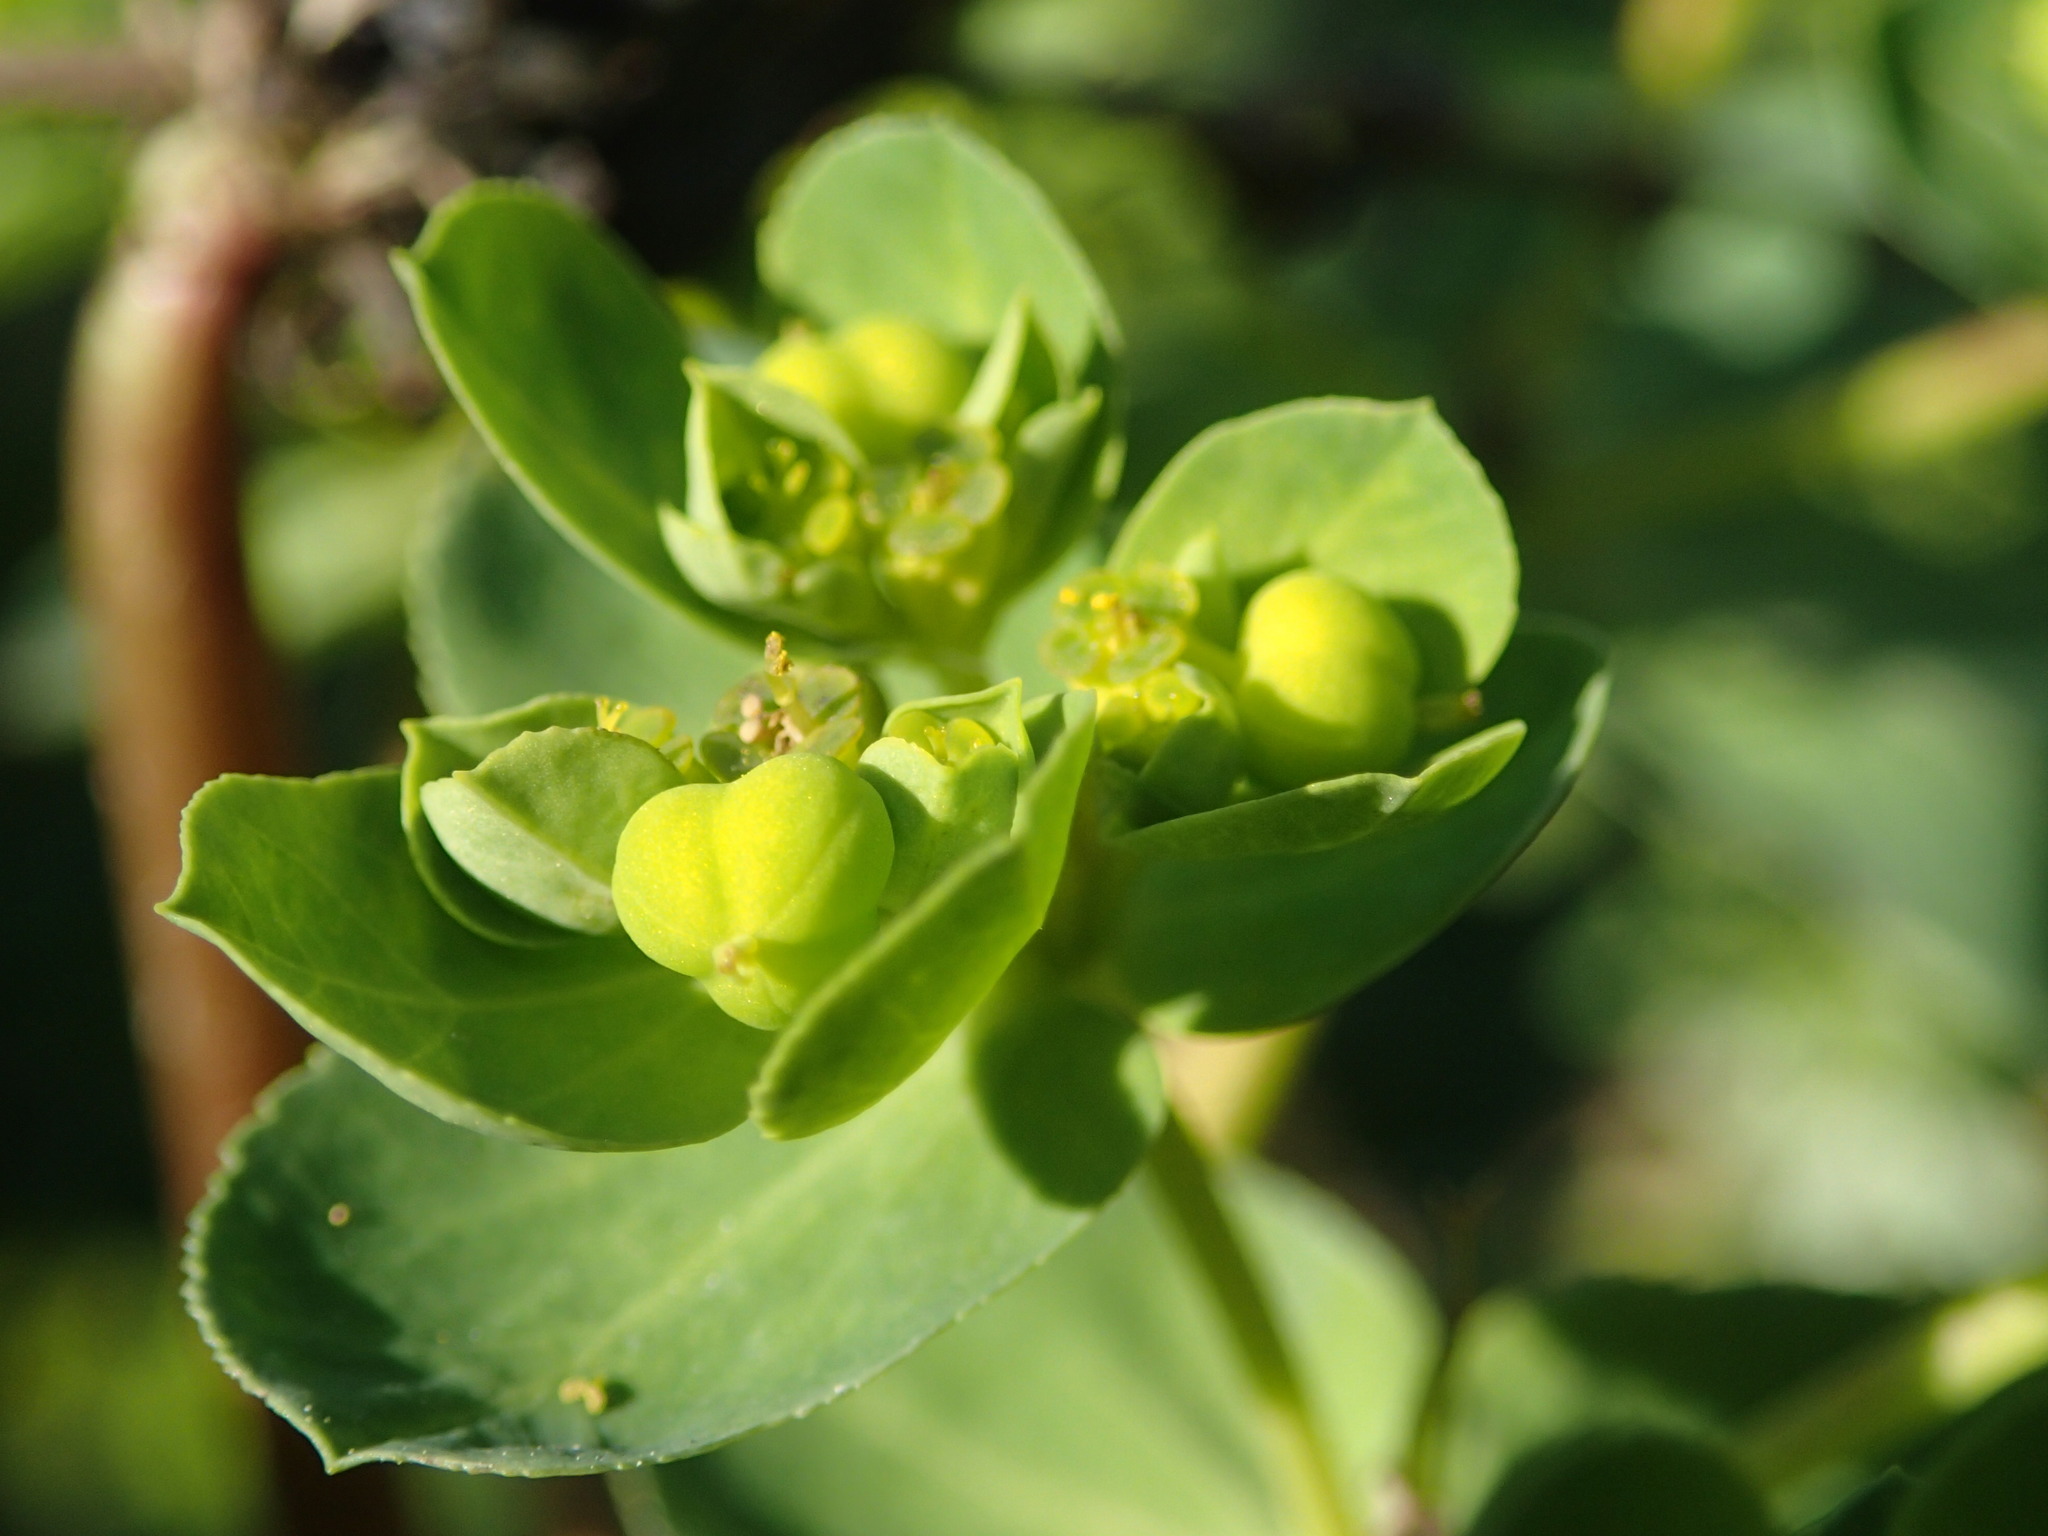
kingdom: Plantae
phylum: Tracheophyta
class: Magnoliopsida
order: Malpighiales
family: Euphorbiaceae
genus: Euphorbia
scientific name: Euphorbia helioscopia
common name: Sun spurge
